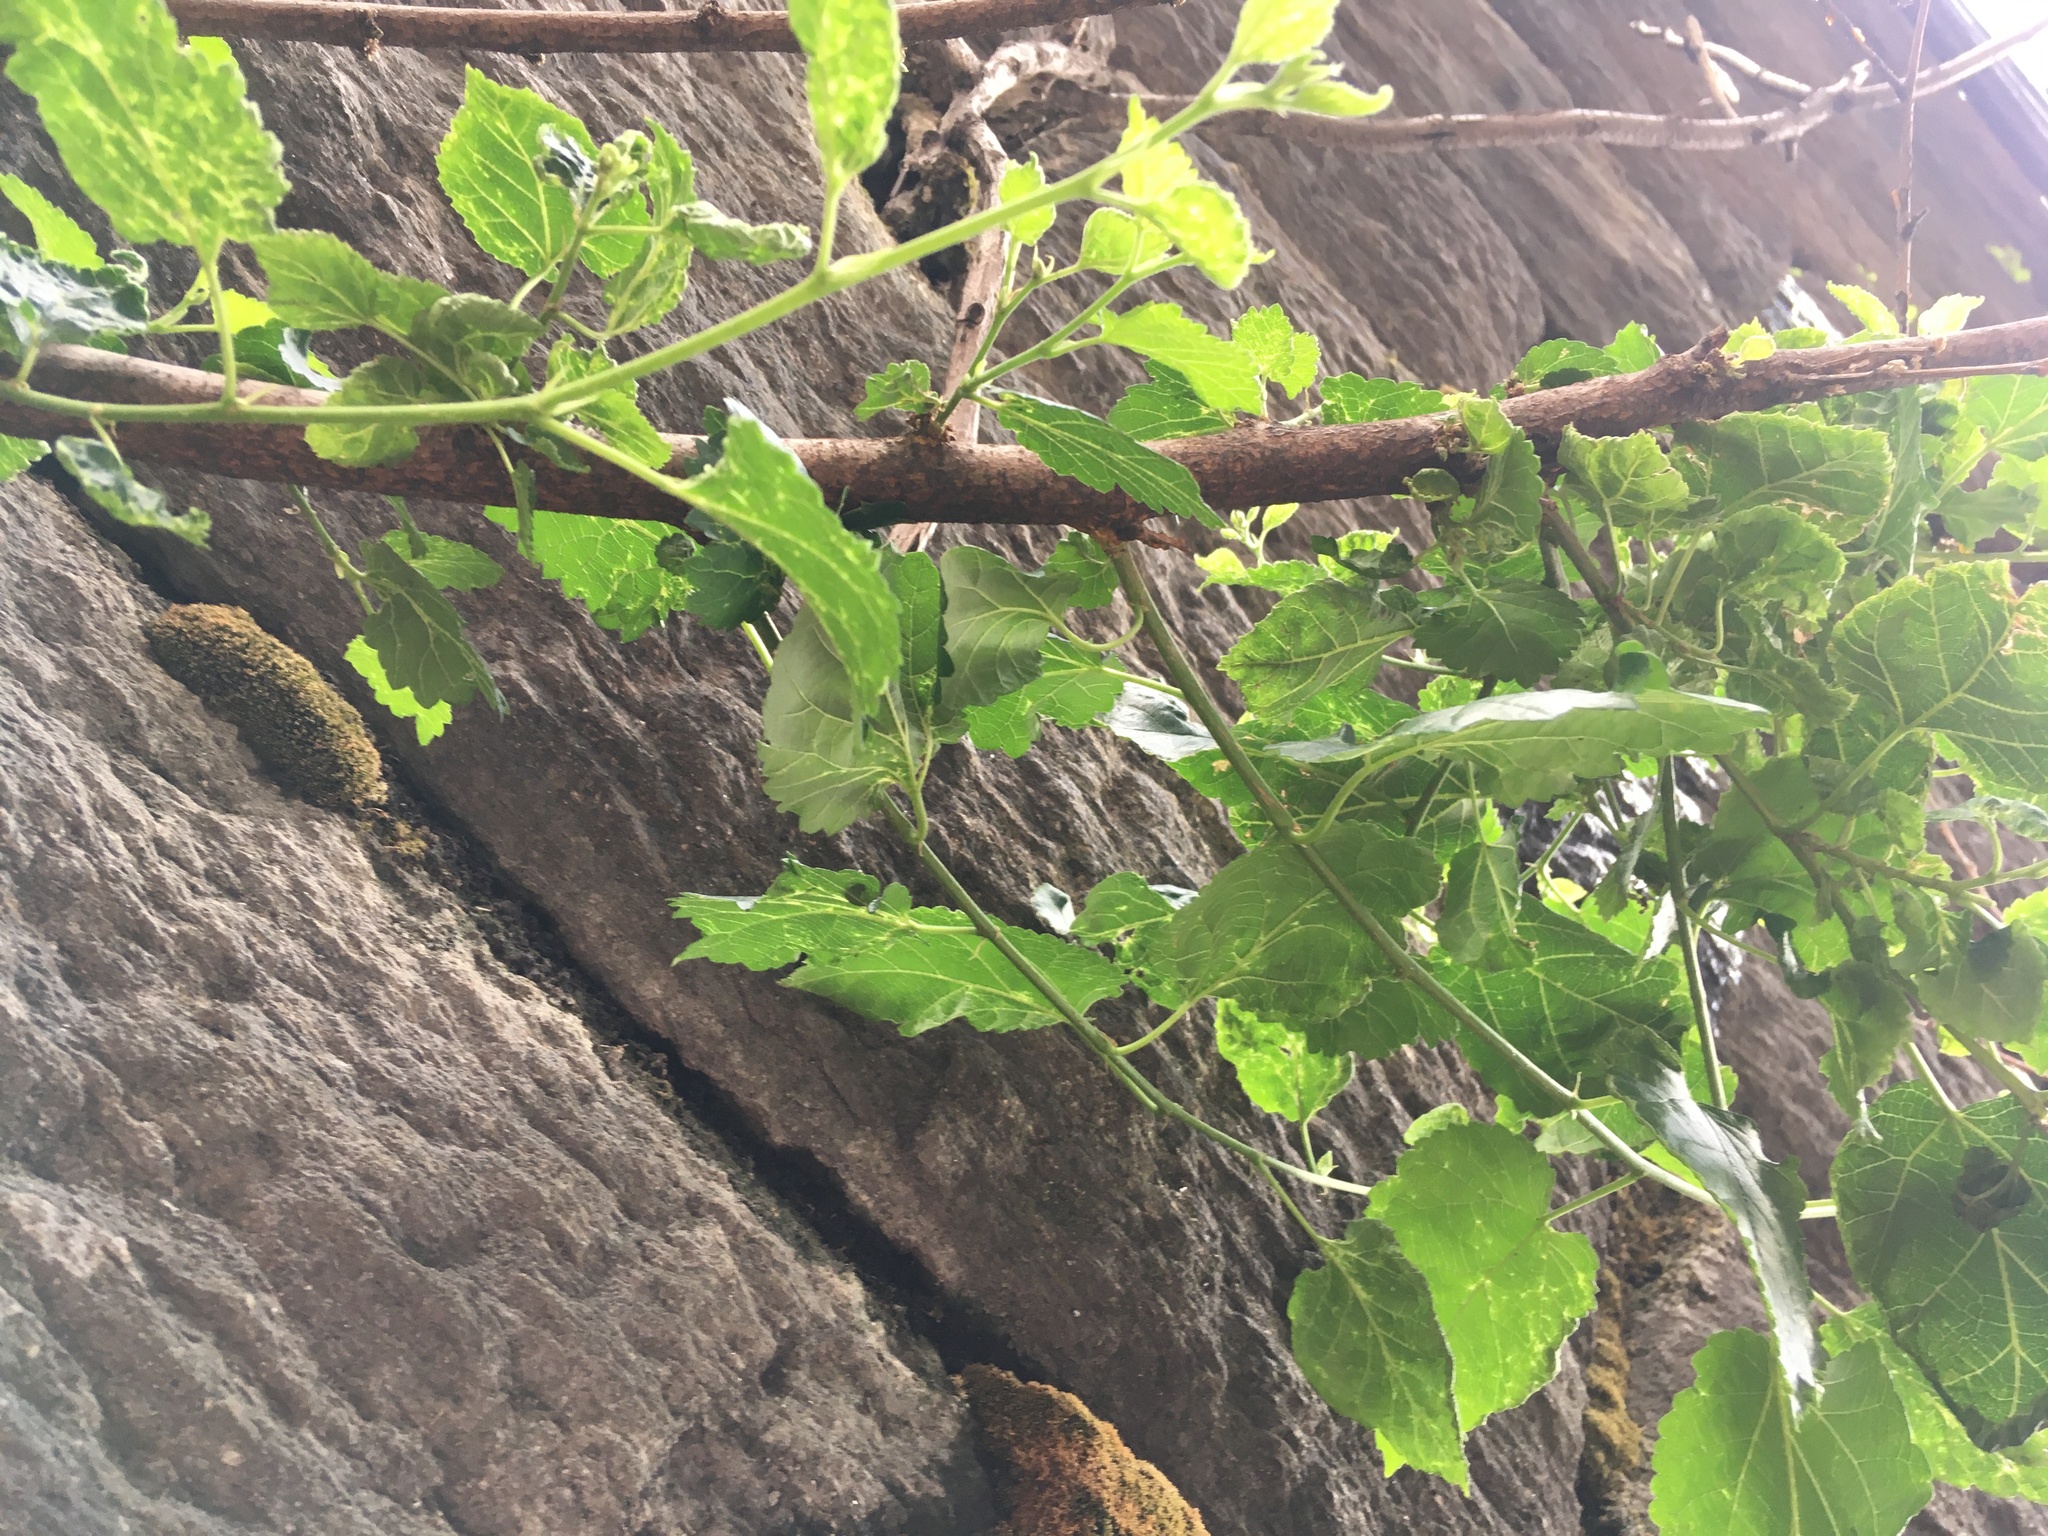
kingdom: Plantae
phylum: Tracheophyta
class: Magnoliopsida
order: Rosales
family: Moraceae
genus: Morus
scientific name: Morus alba
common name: White mulberry
